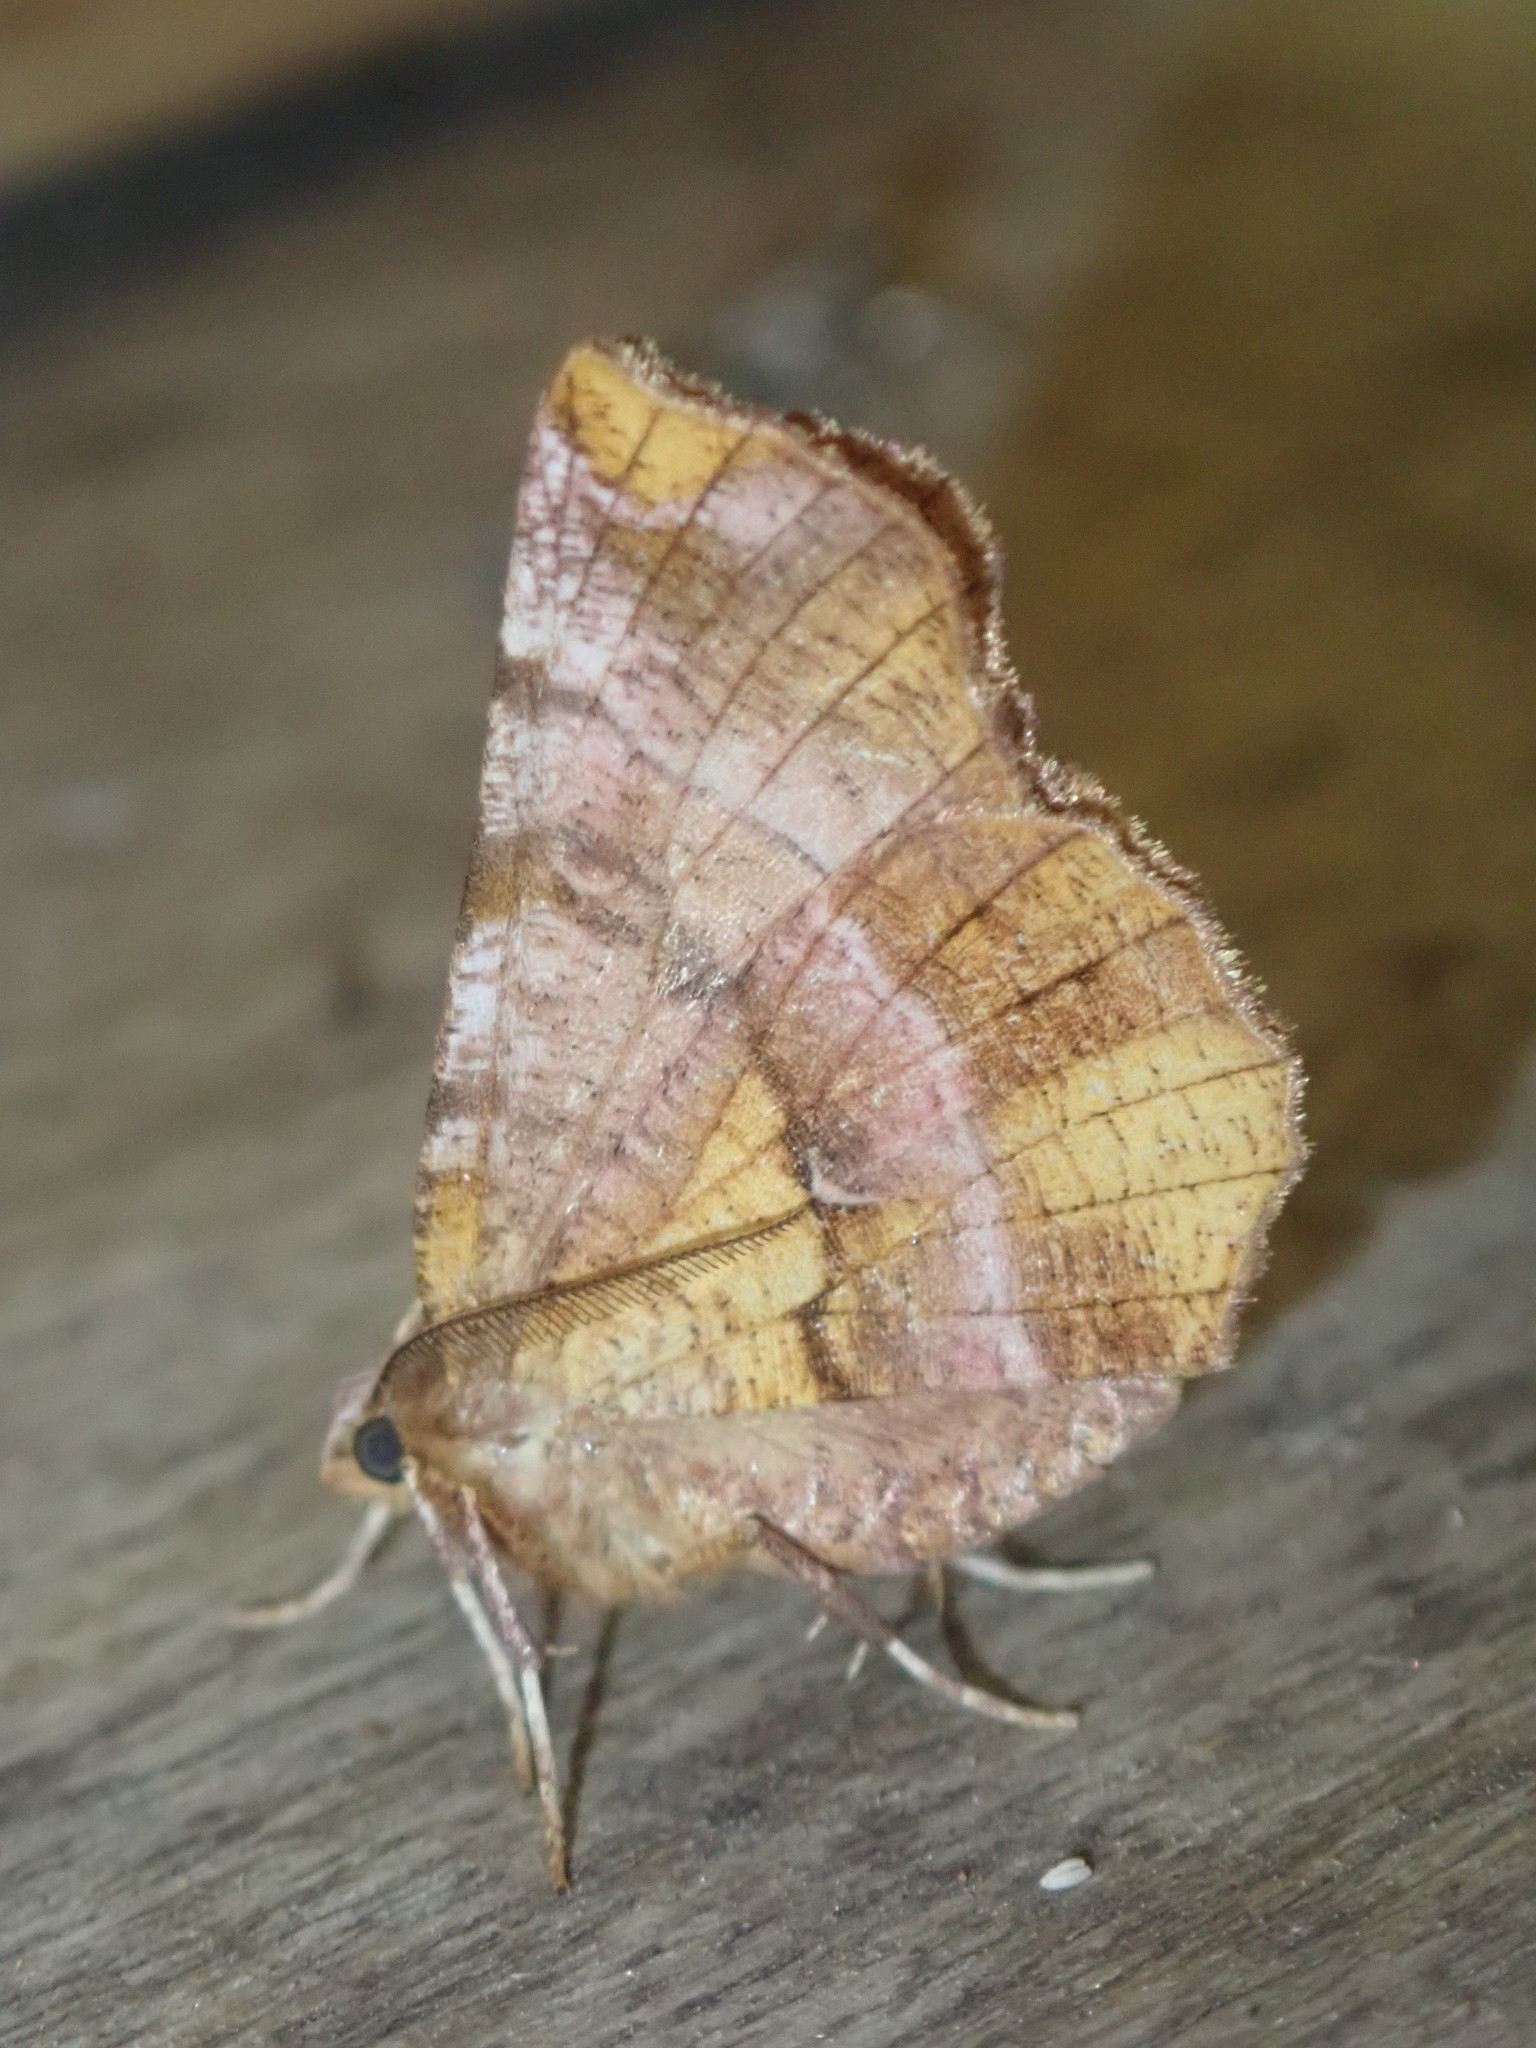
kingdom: Animalia
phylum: Arthropoda
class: Insecta
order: Lepidoptera
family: Geometridae
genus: Selenia
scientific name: Selenia dentaria
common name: Early thorn
